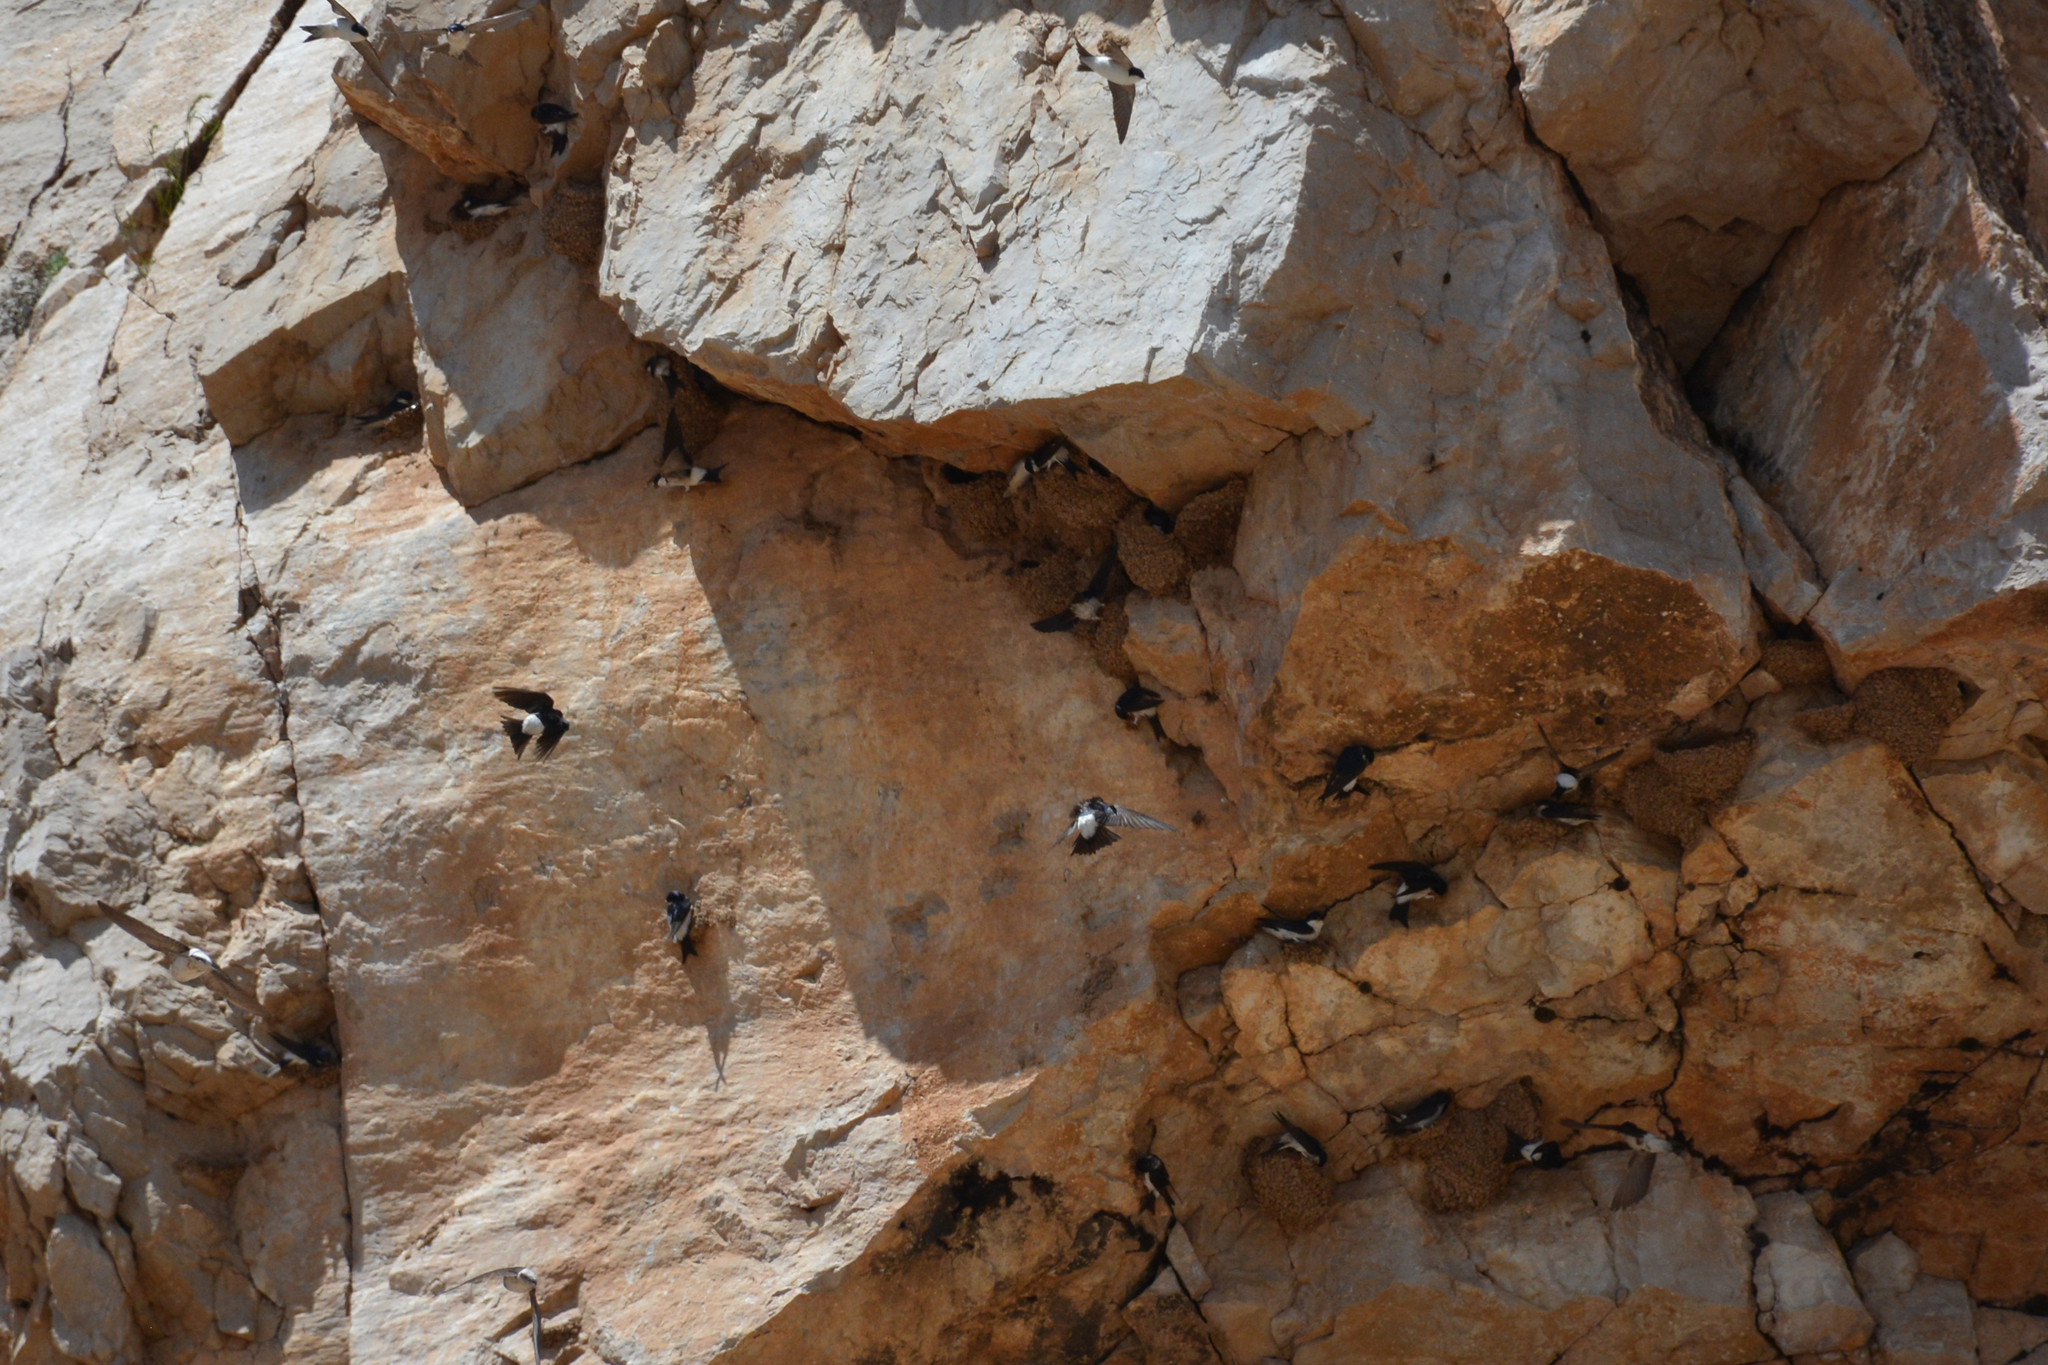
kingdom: Animalia
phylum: Chordata
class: Aves
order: Passeriformes
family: Hirundinidae
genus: Delichon
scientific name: Delichon urbicum
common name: Common house martin
